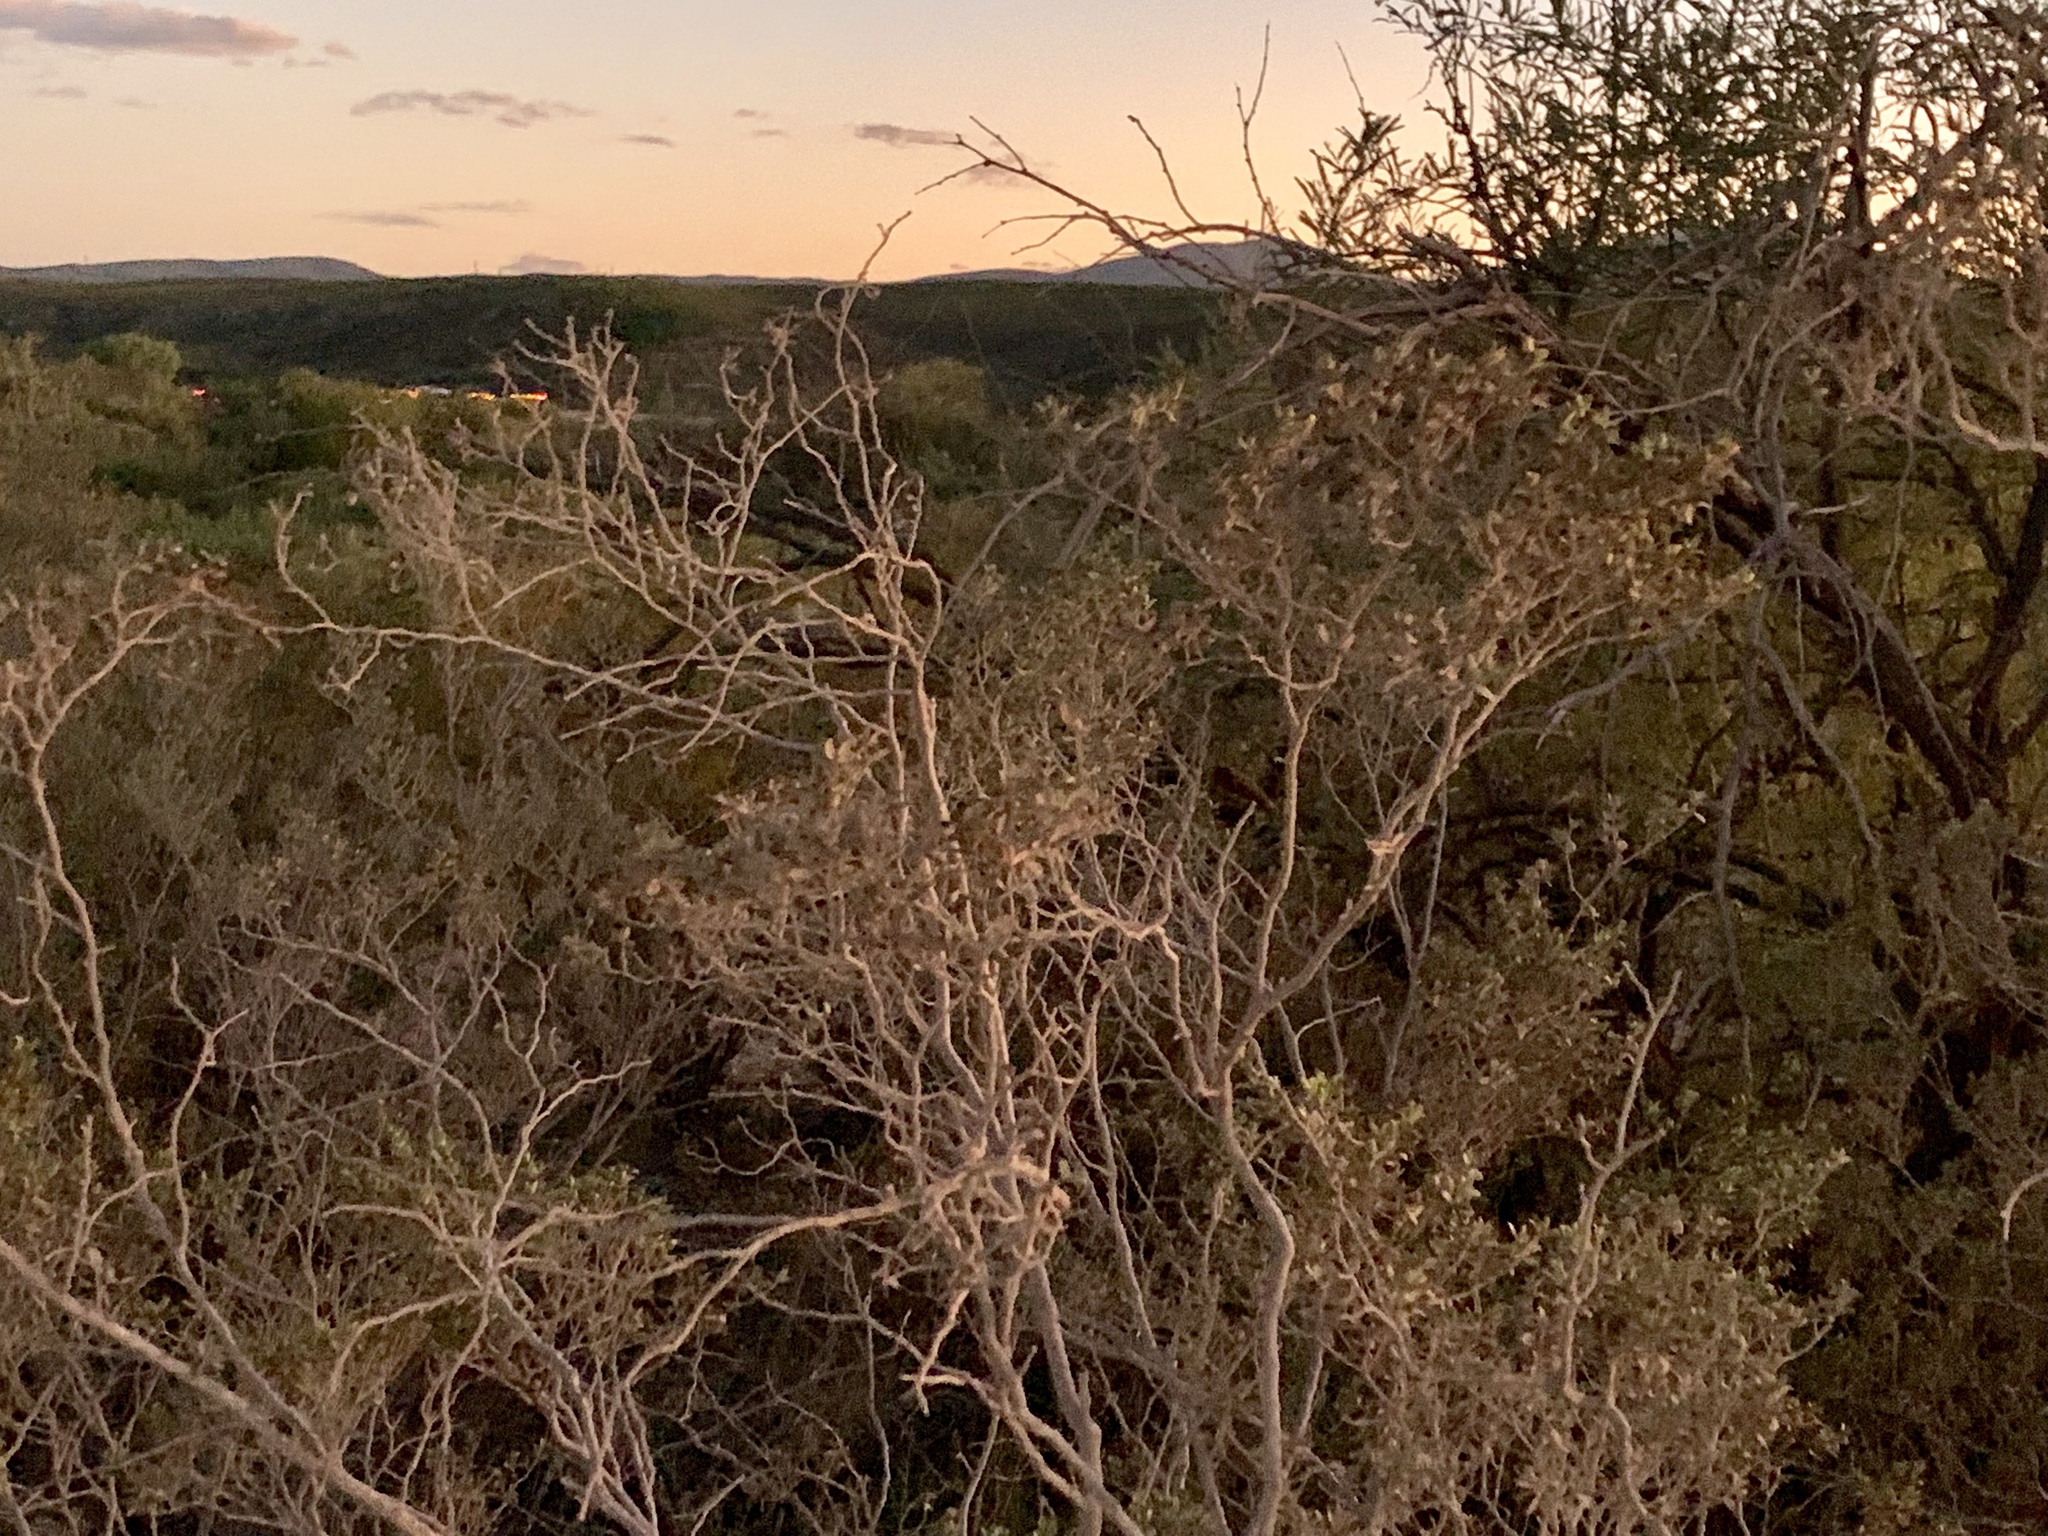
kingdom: Plantae
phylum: Tracheophyta
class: Magnoliopsida
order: Zygophyllales
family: Zygophyllaceae
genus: Larrea
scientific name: Larrea tridentata
